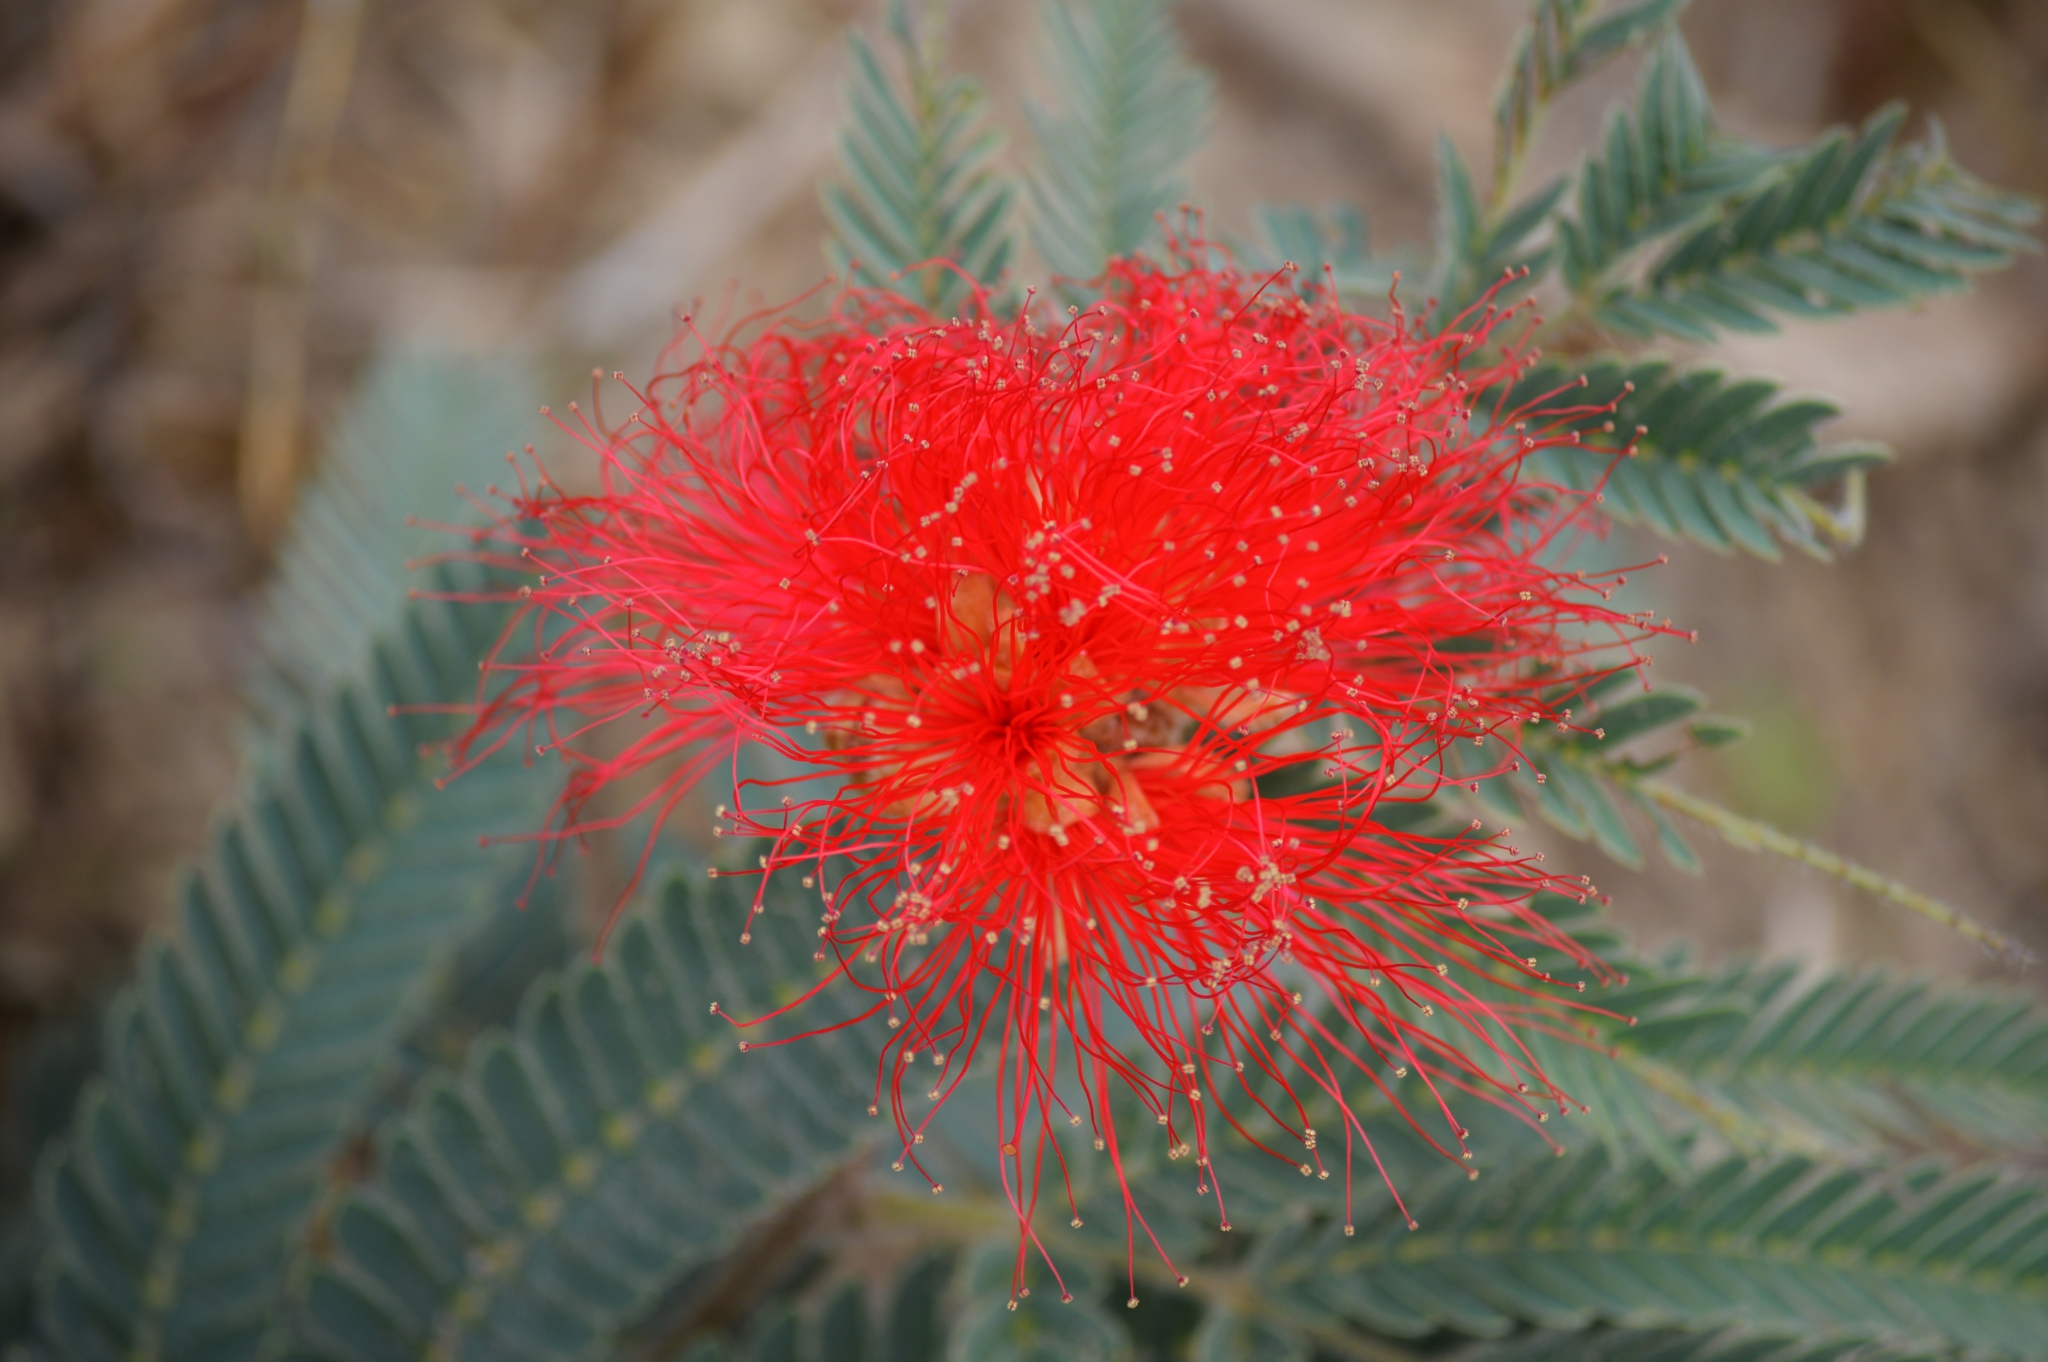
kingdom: Plantae
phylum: Tracheophyta
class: Magnoliopsida
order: Fabales
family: Fabaceae
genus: Calliandra
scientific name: Calliandra dysantha
